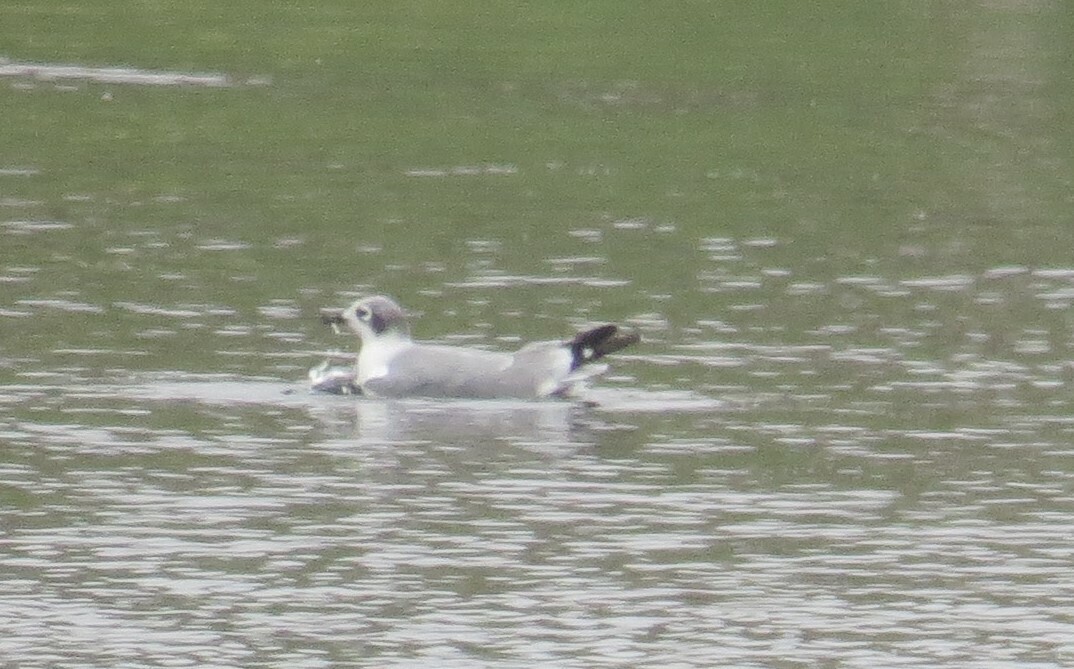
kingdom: Animalia
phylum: Chordata
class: Aves
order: Charadriiformes
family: Laridae
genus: Leucophaeus
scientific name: Leucophaeus pipixcan
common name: Franklin's gull
